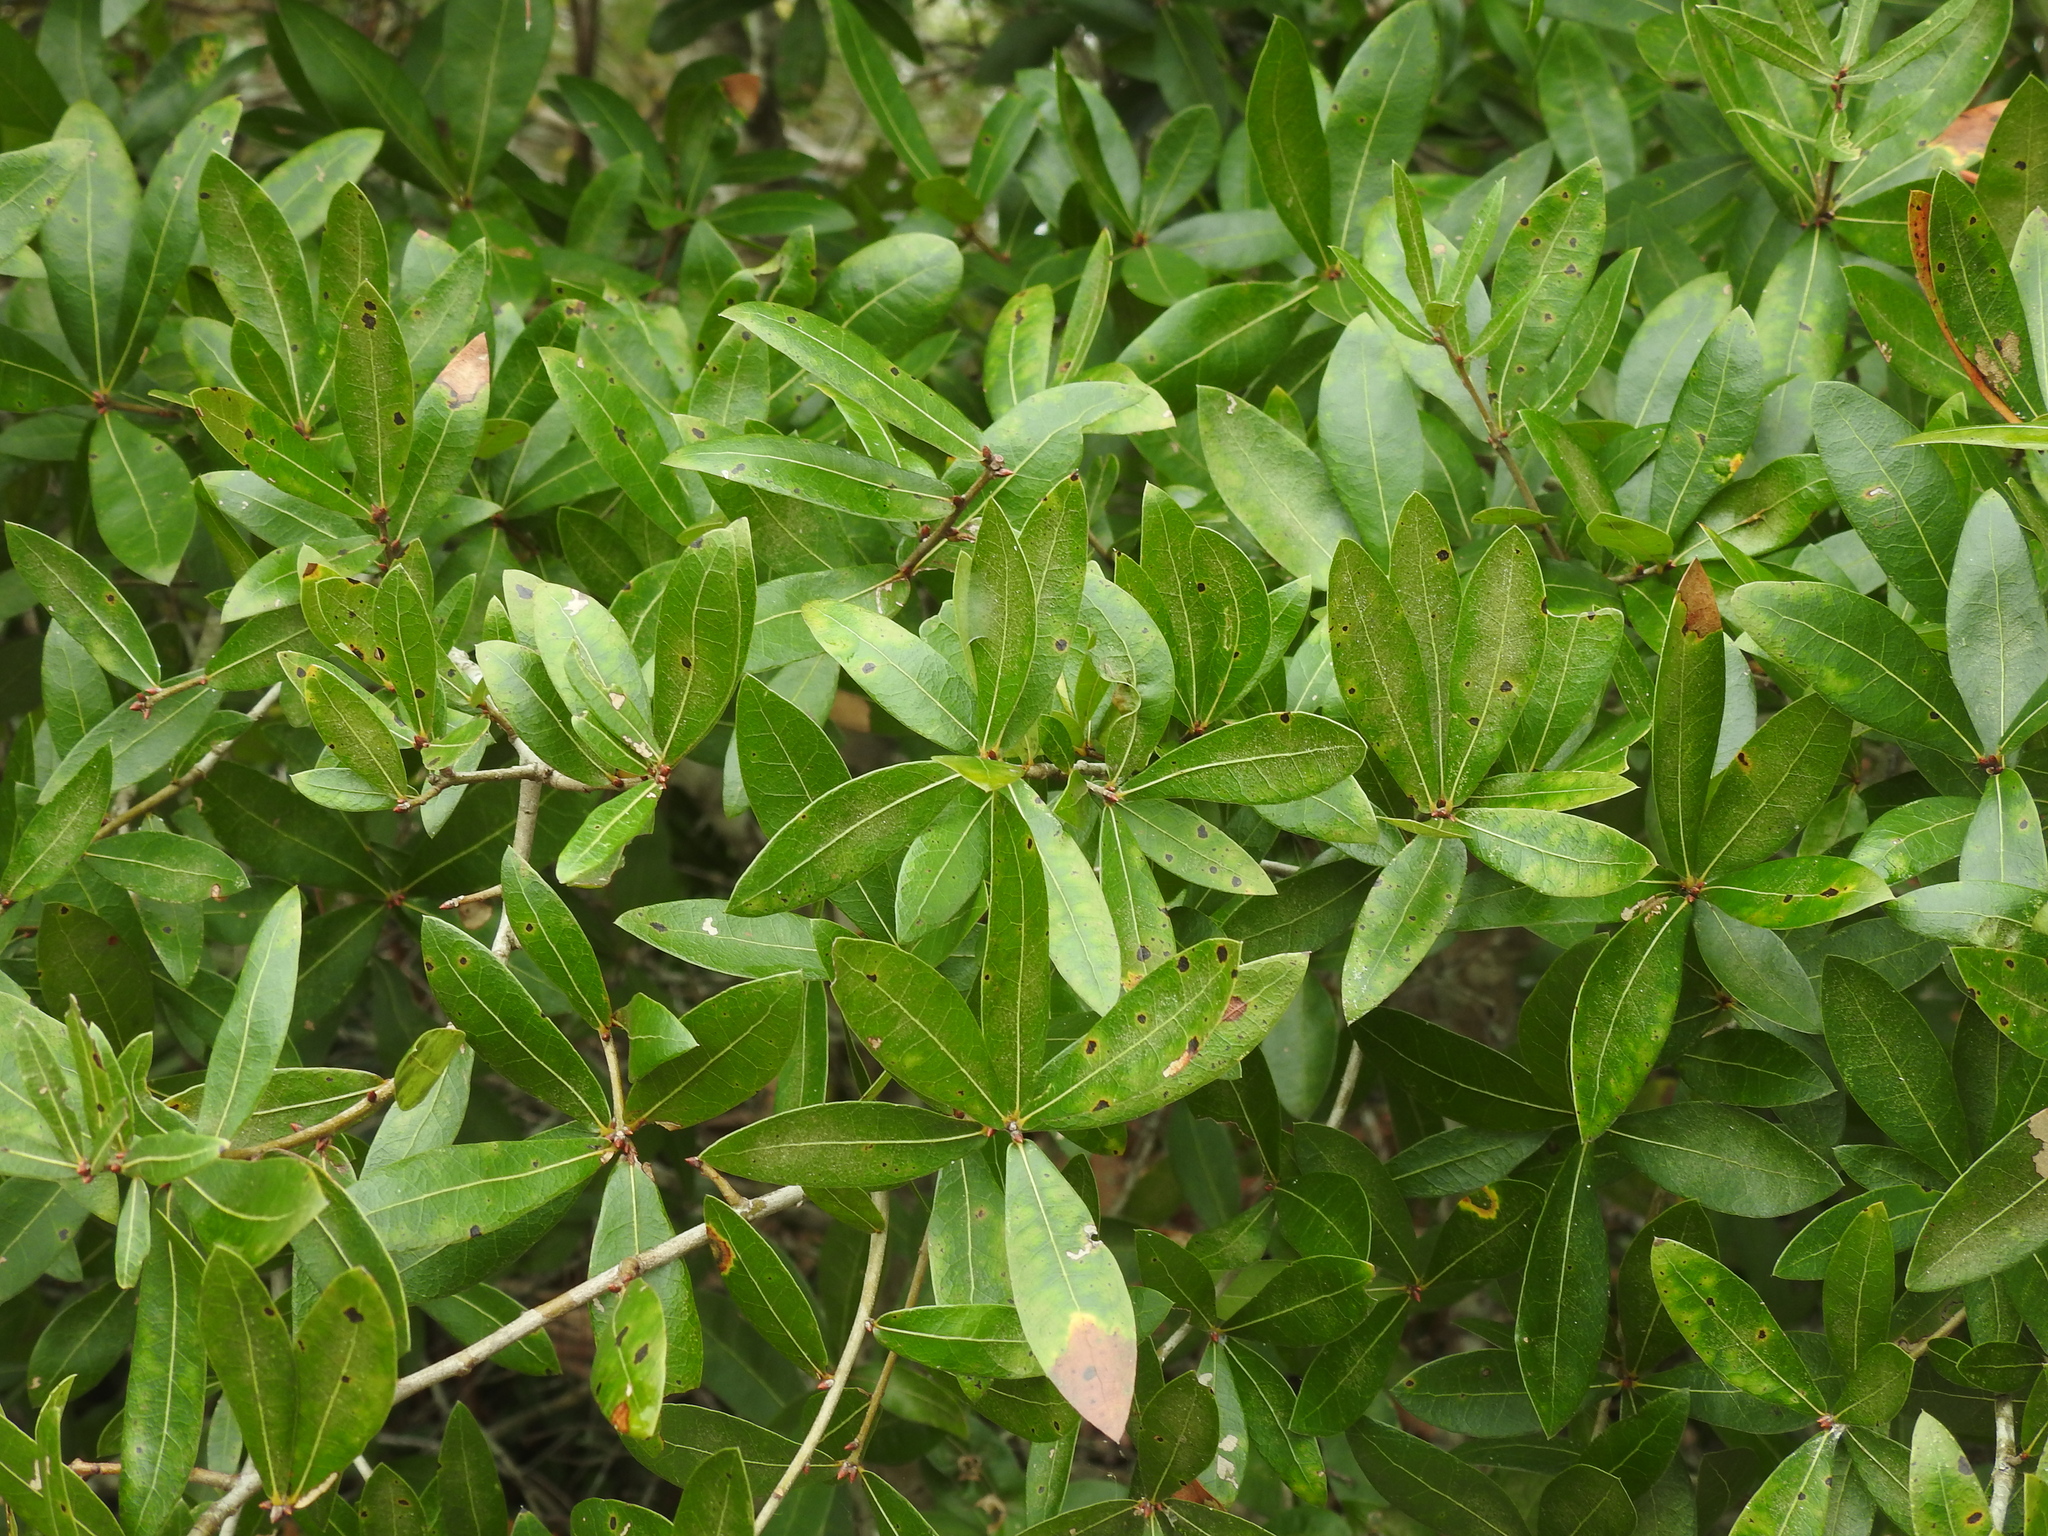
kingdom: Plantae
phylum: Tracheophyta
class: Magnoliopsida
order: Fagales
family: Fagaceae
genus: Quercus
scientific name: Quercus hemisphaerica
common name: Darlington oak
